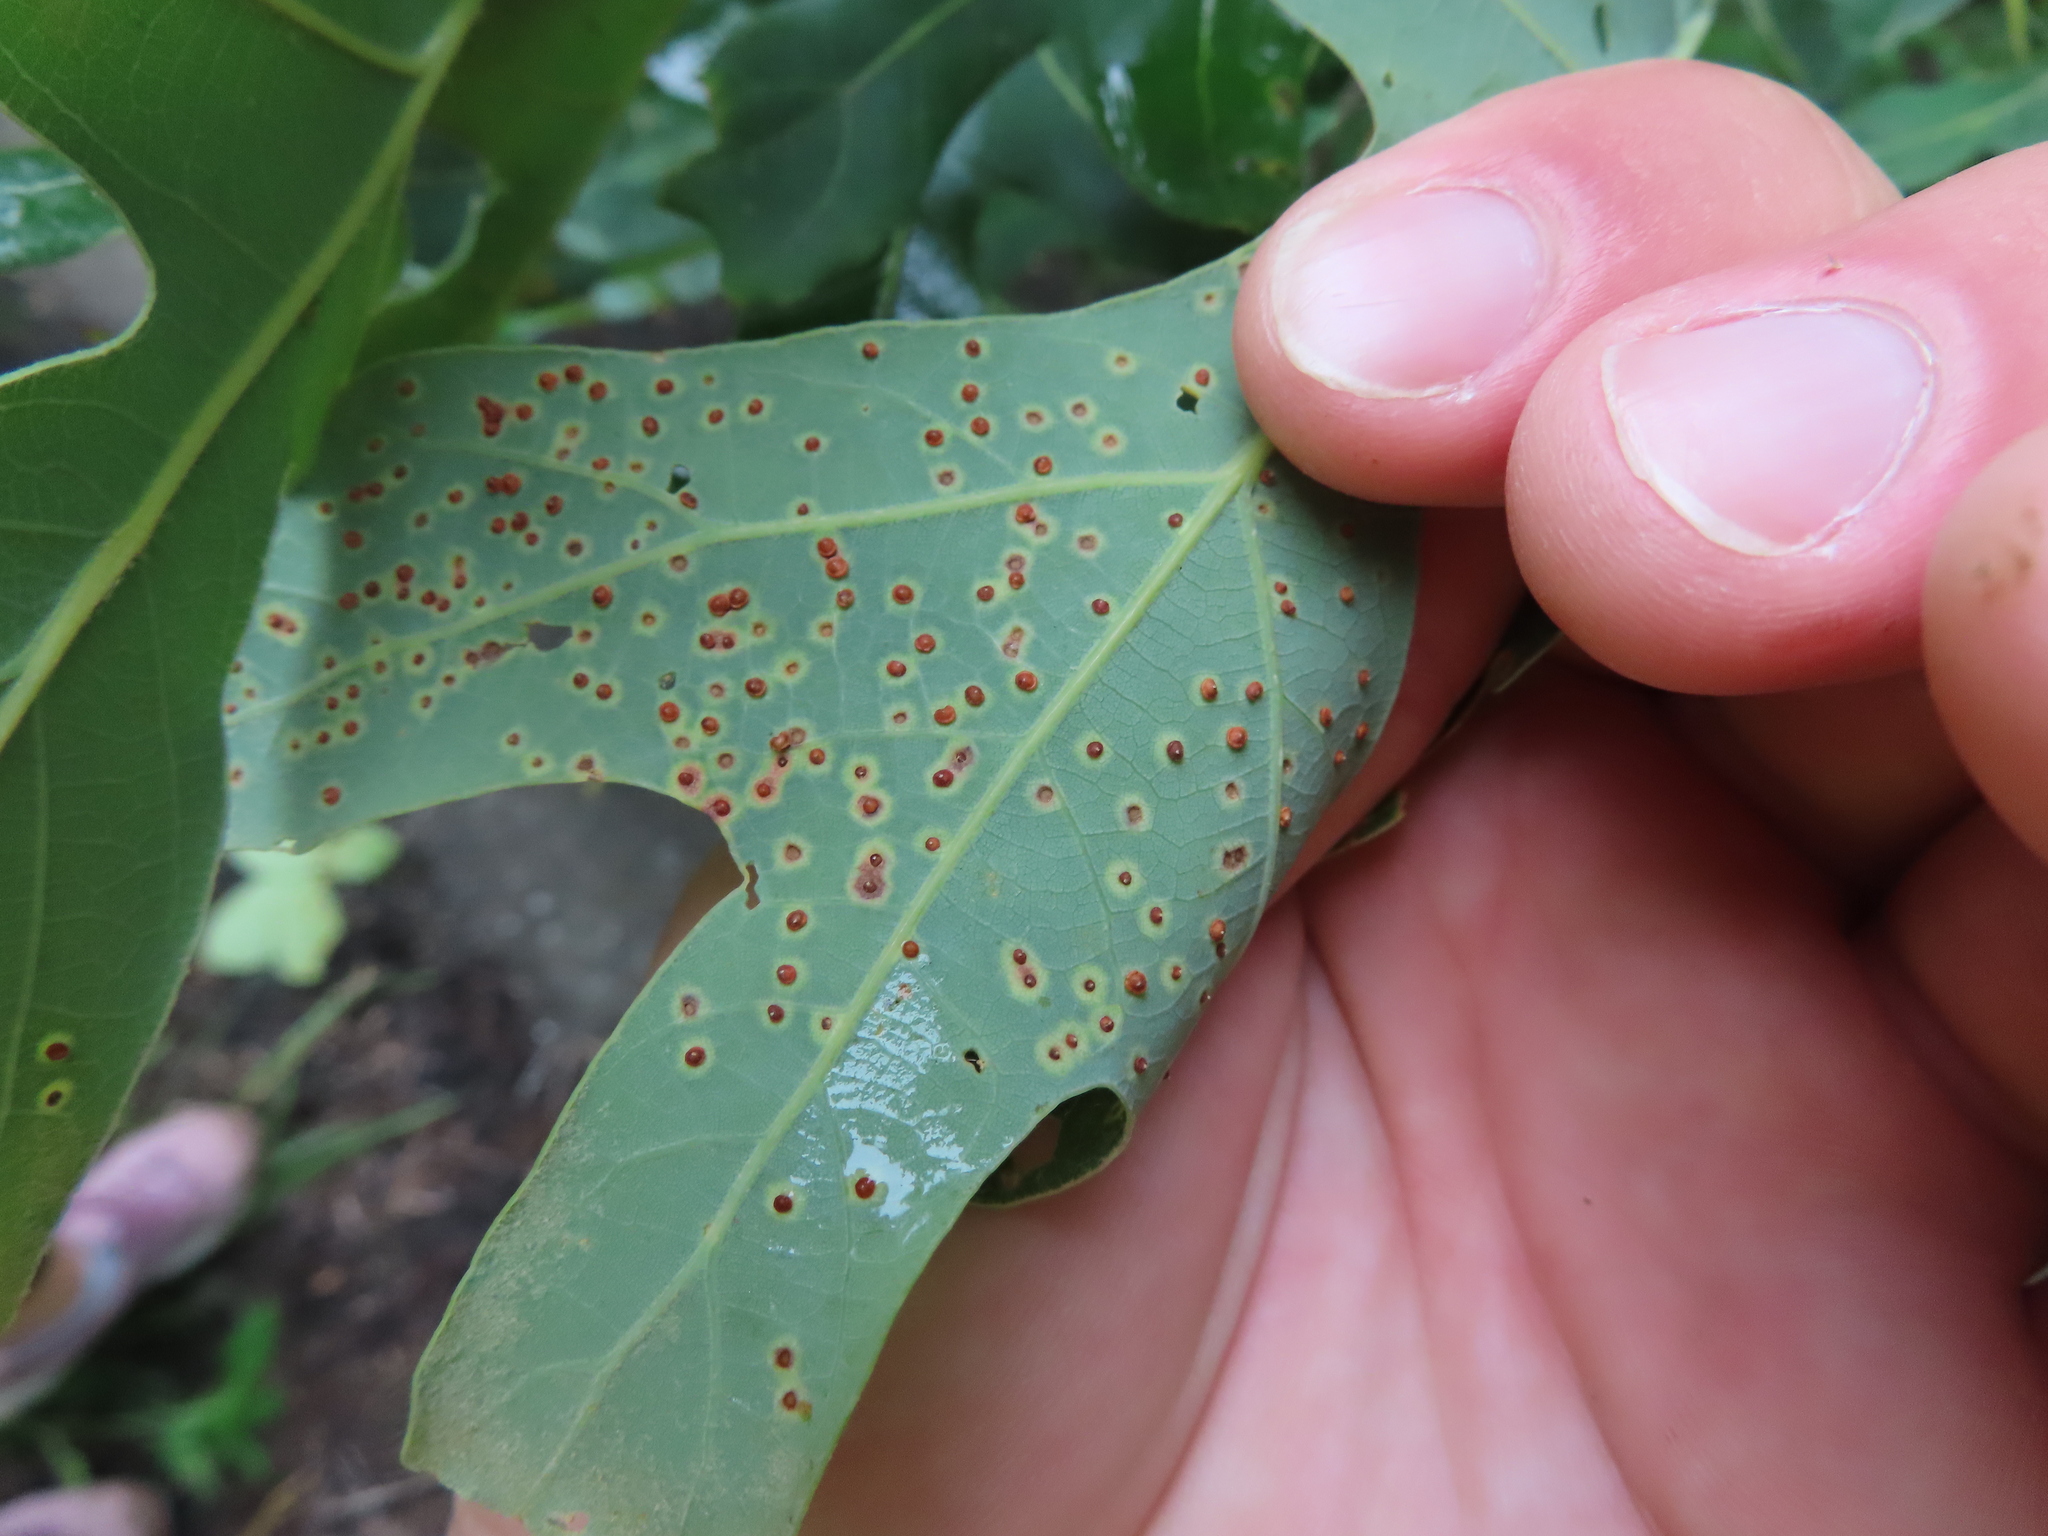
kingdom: Animalia
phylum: Arthropoda
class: Insecta
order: Hymenoptera
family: Cynipidae
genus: Neuroterus
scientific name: Neuroterus
